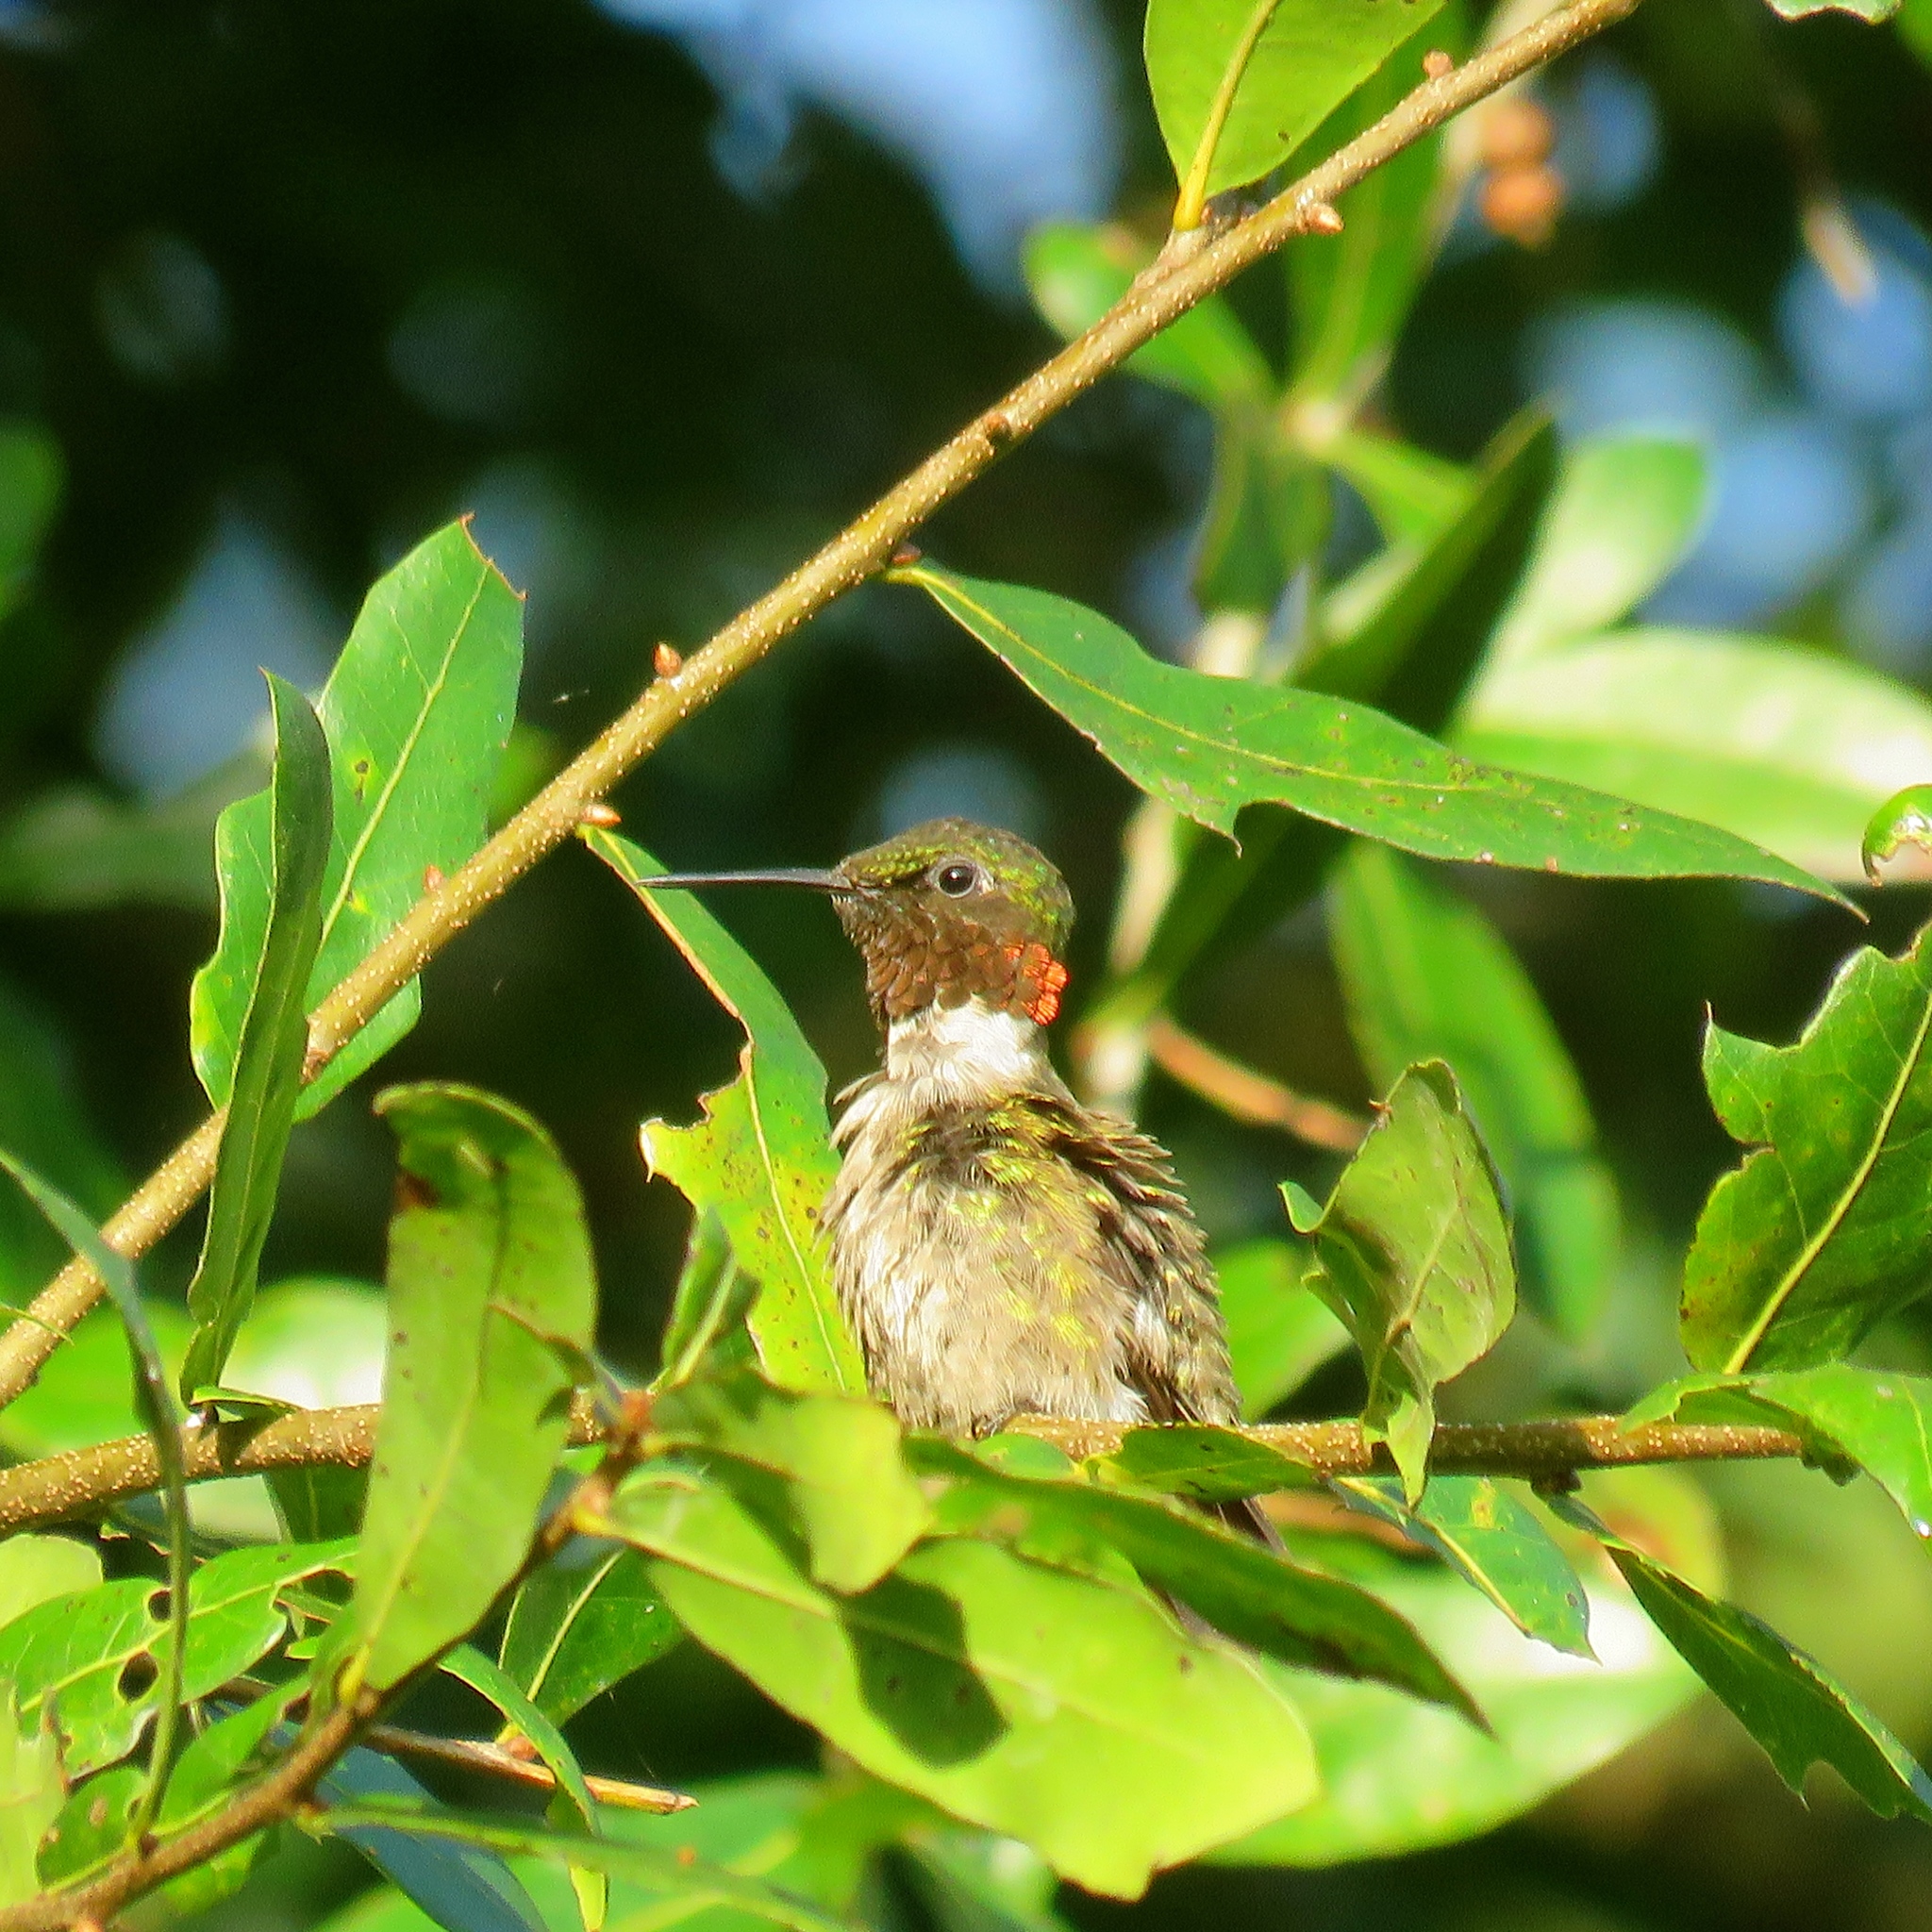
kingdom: Animalia
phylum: Chordata
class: Aves
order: Apodiformes
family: Trochilidae
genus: Archilochus
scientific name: Archilochus colubris
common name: Ruby-throated hummingbird
